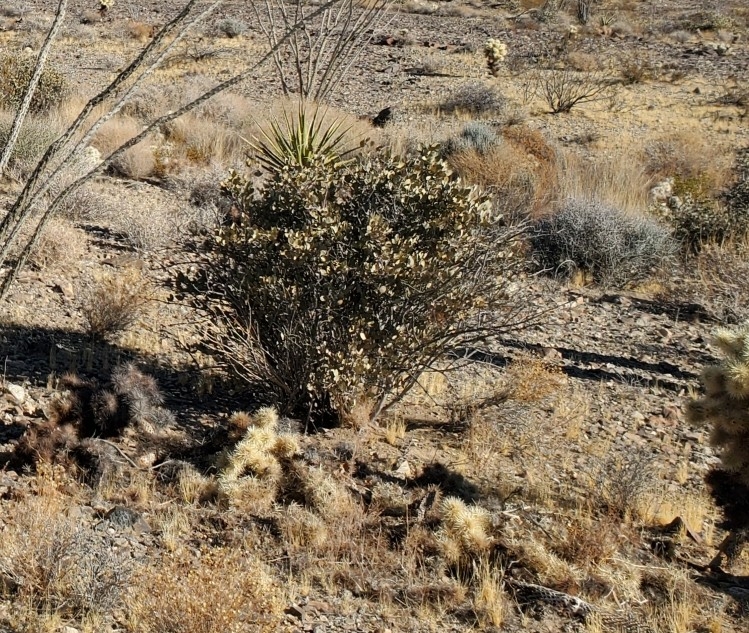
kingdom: Plantae
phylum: Tracheophyta
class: Magnoliopsida
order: Caryophyllales
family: Simmondsiaceae
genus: Simmondsia
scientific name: Simmondsia chinensis
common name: Jojoba
